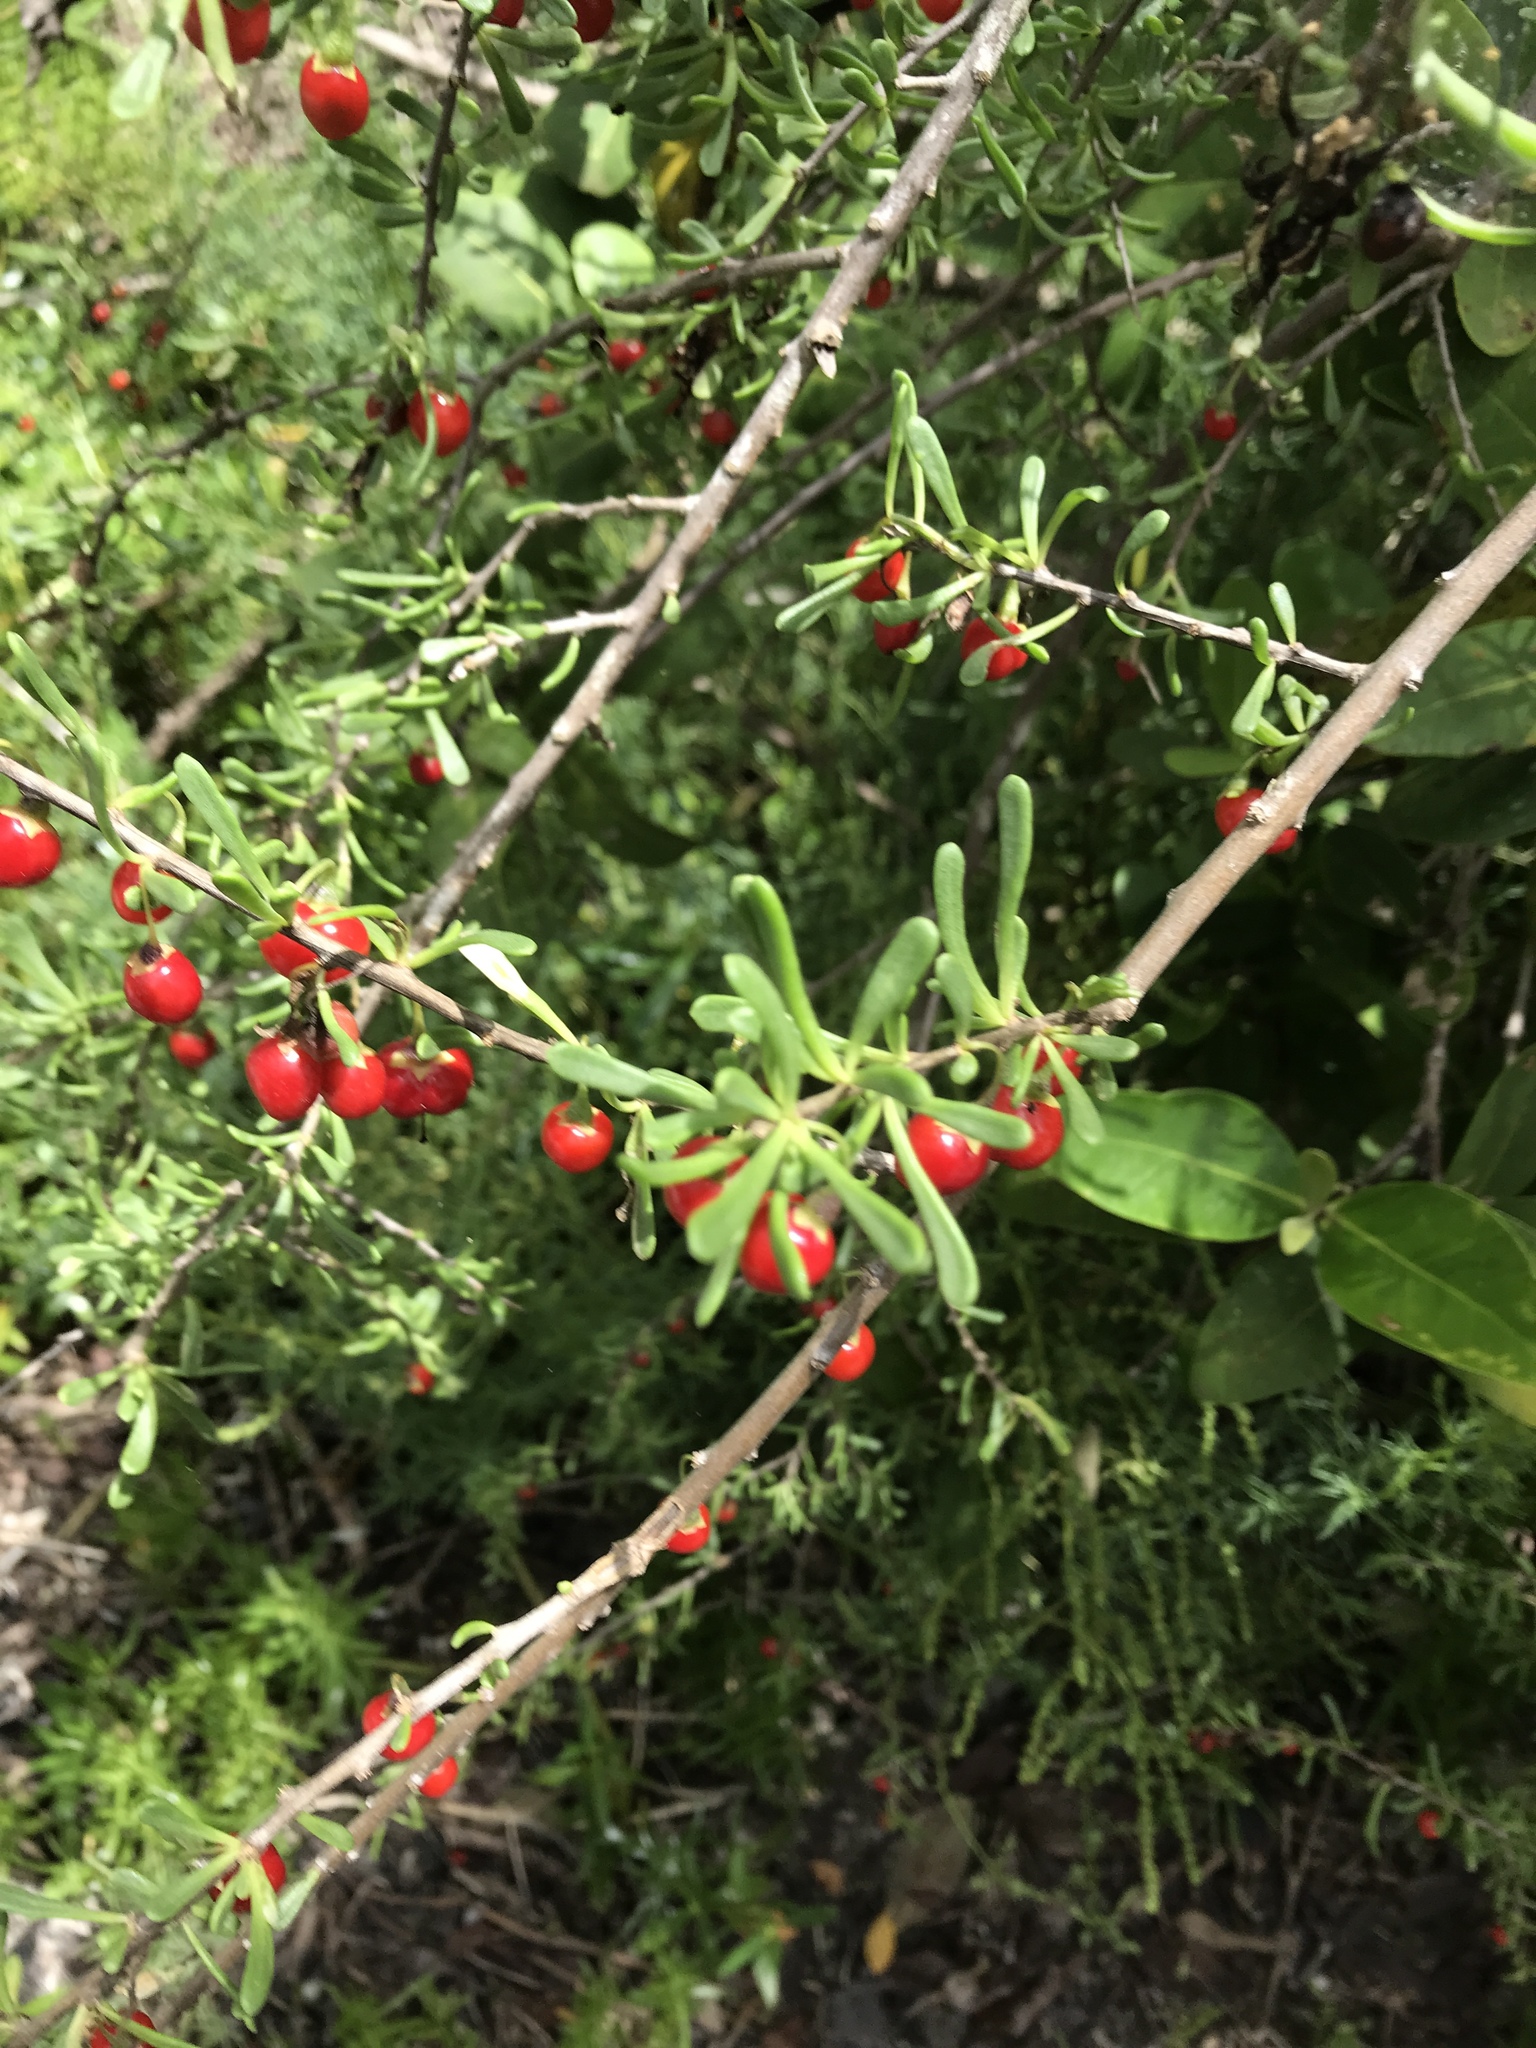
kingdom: Plantae
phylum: Tracheophyta
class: Magnoliopsida
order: Solanales
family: Solanaceae
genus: Lycium
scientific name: Lycium carolinianum
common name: Christmasberry
